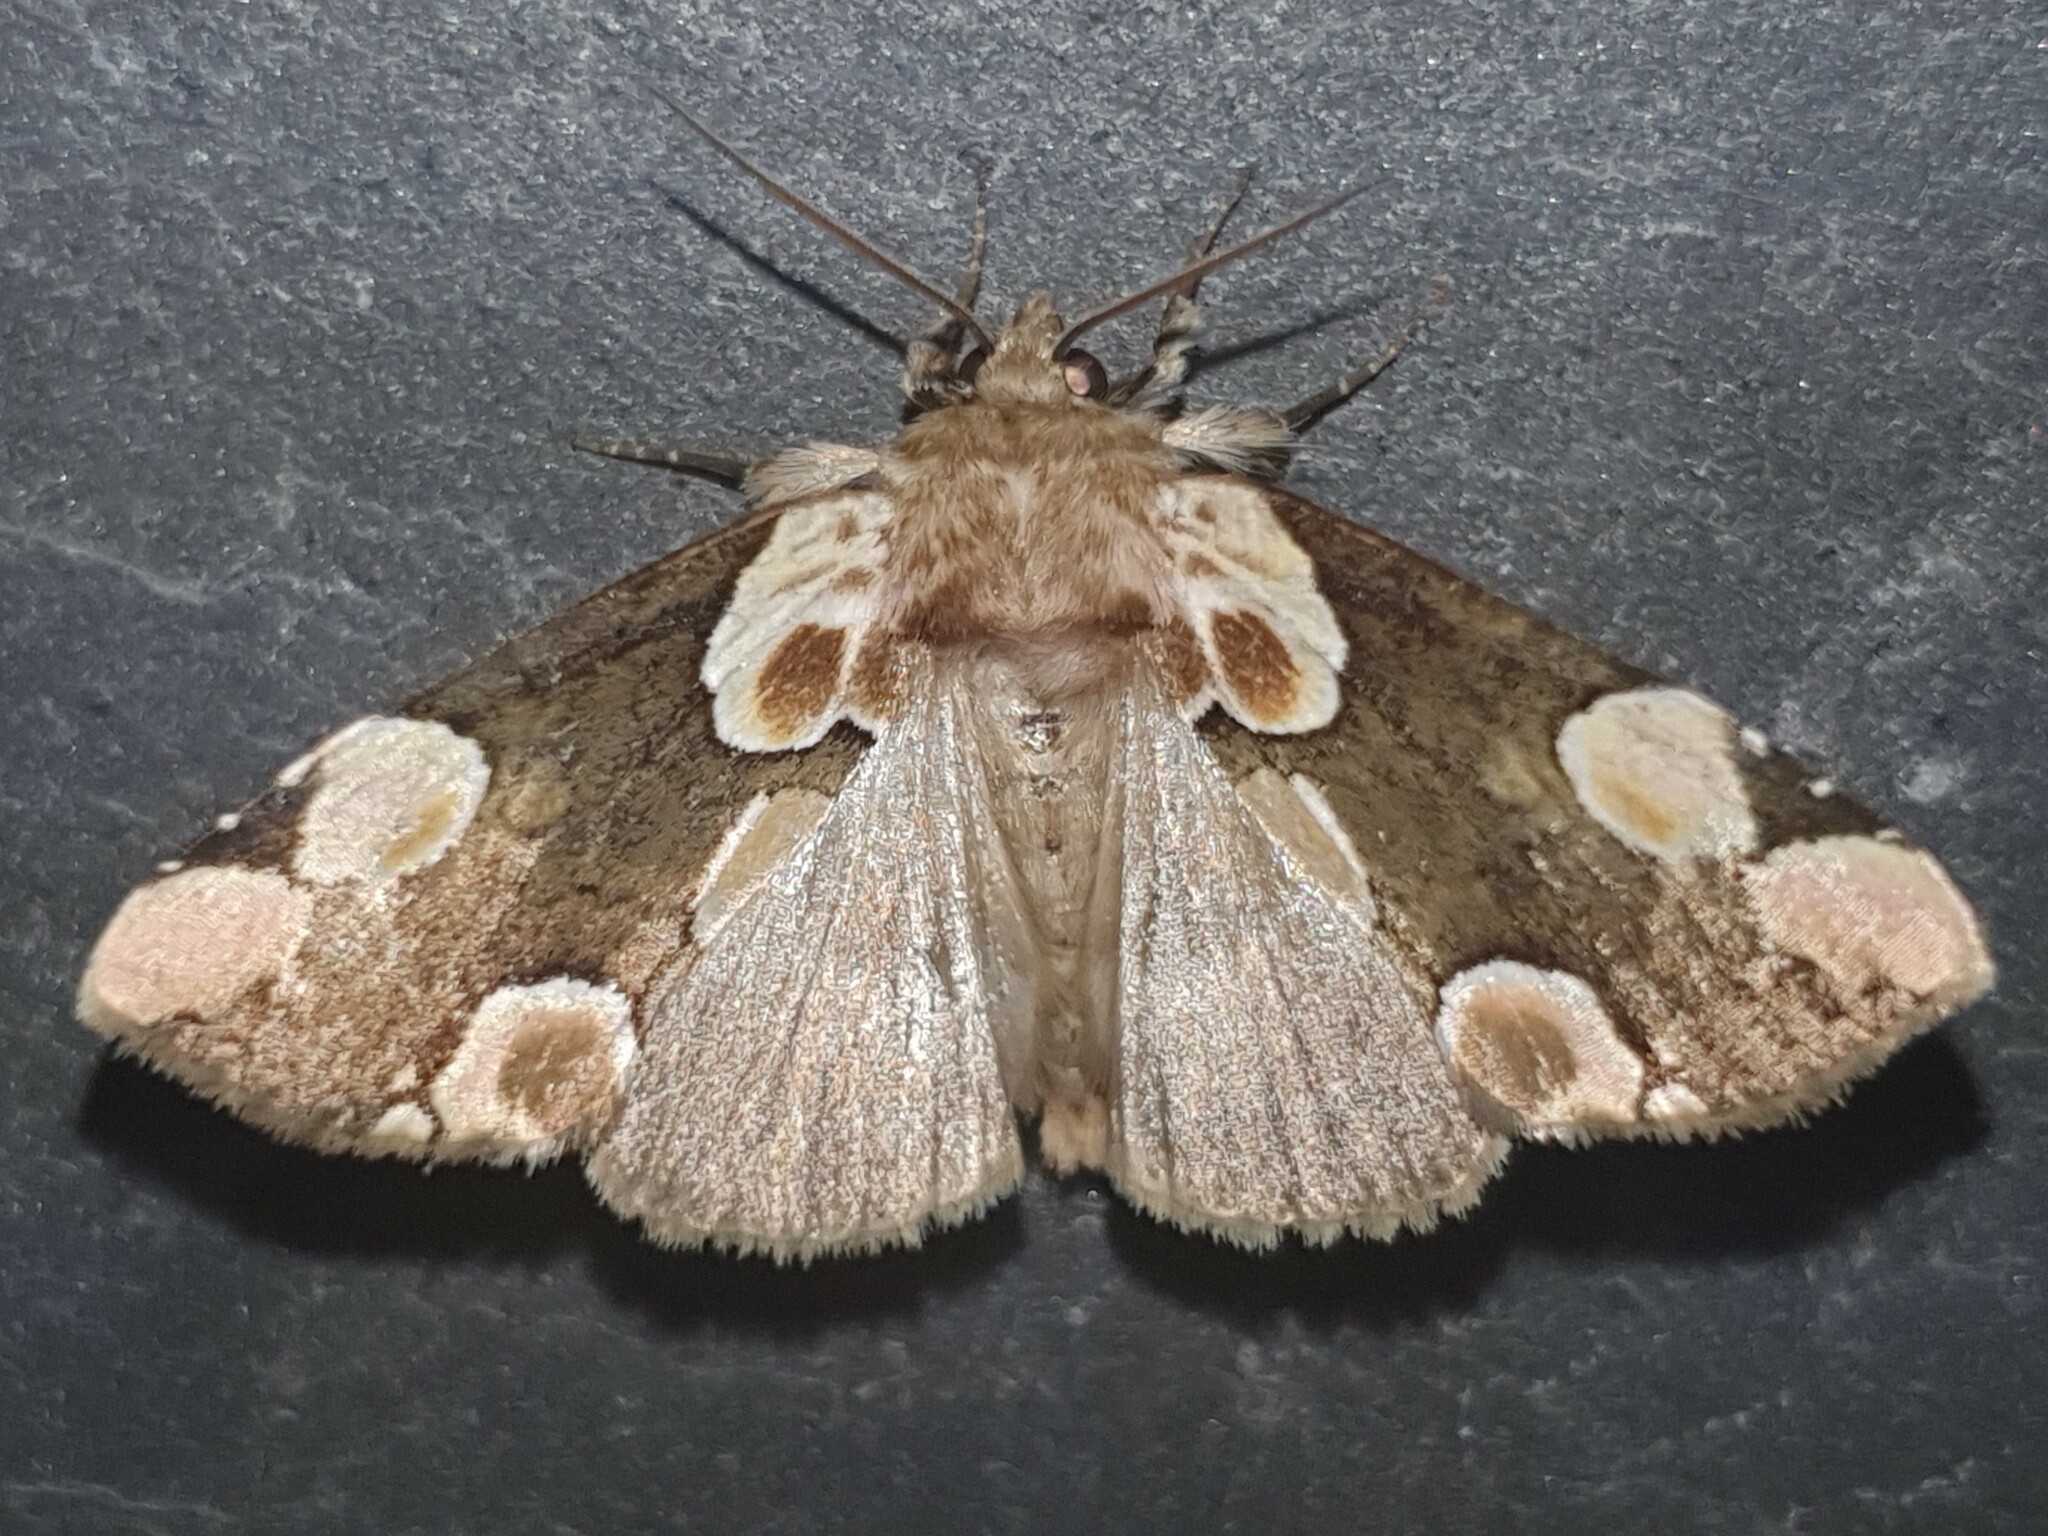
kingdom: Animalia
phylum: Arthropoda
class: Insecta
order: Lepidoptera
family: Drepanidae
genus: Thyatira
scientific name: Thyatira batis
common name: Peach blossom
